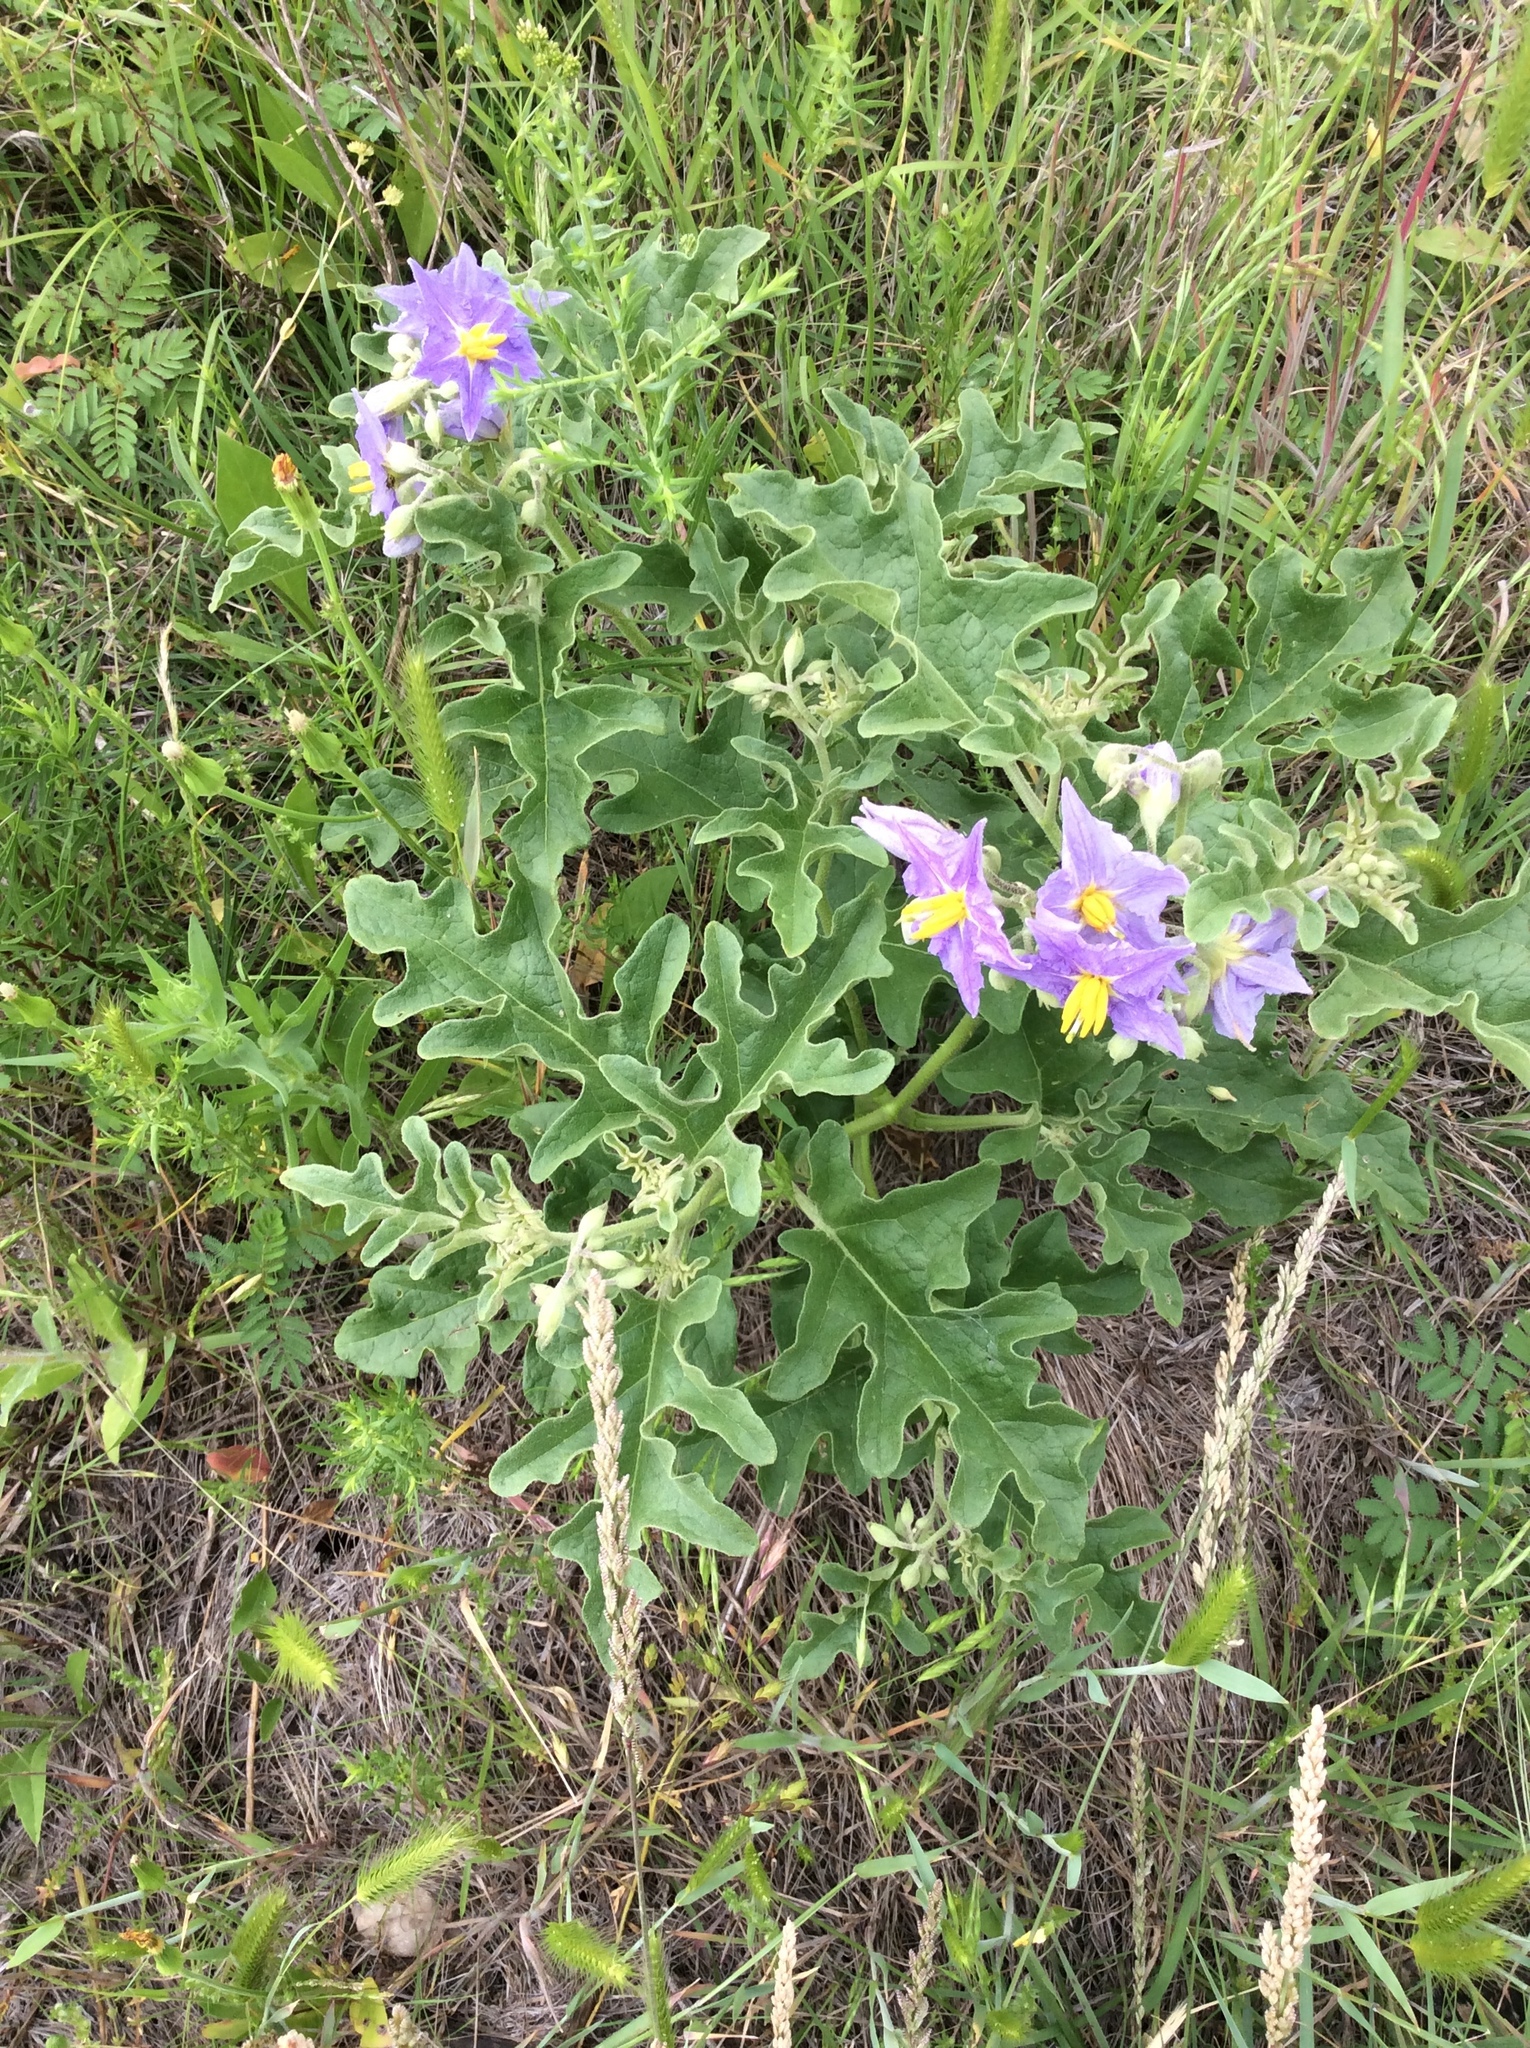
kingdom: Plantae
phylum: Tracheophyta
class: Magnoliopsida
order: Solanales
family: Solanaceae
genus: Solanum
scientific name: Solanum dimidiatum
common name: Carolina horse-nettle
